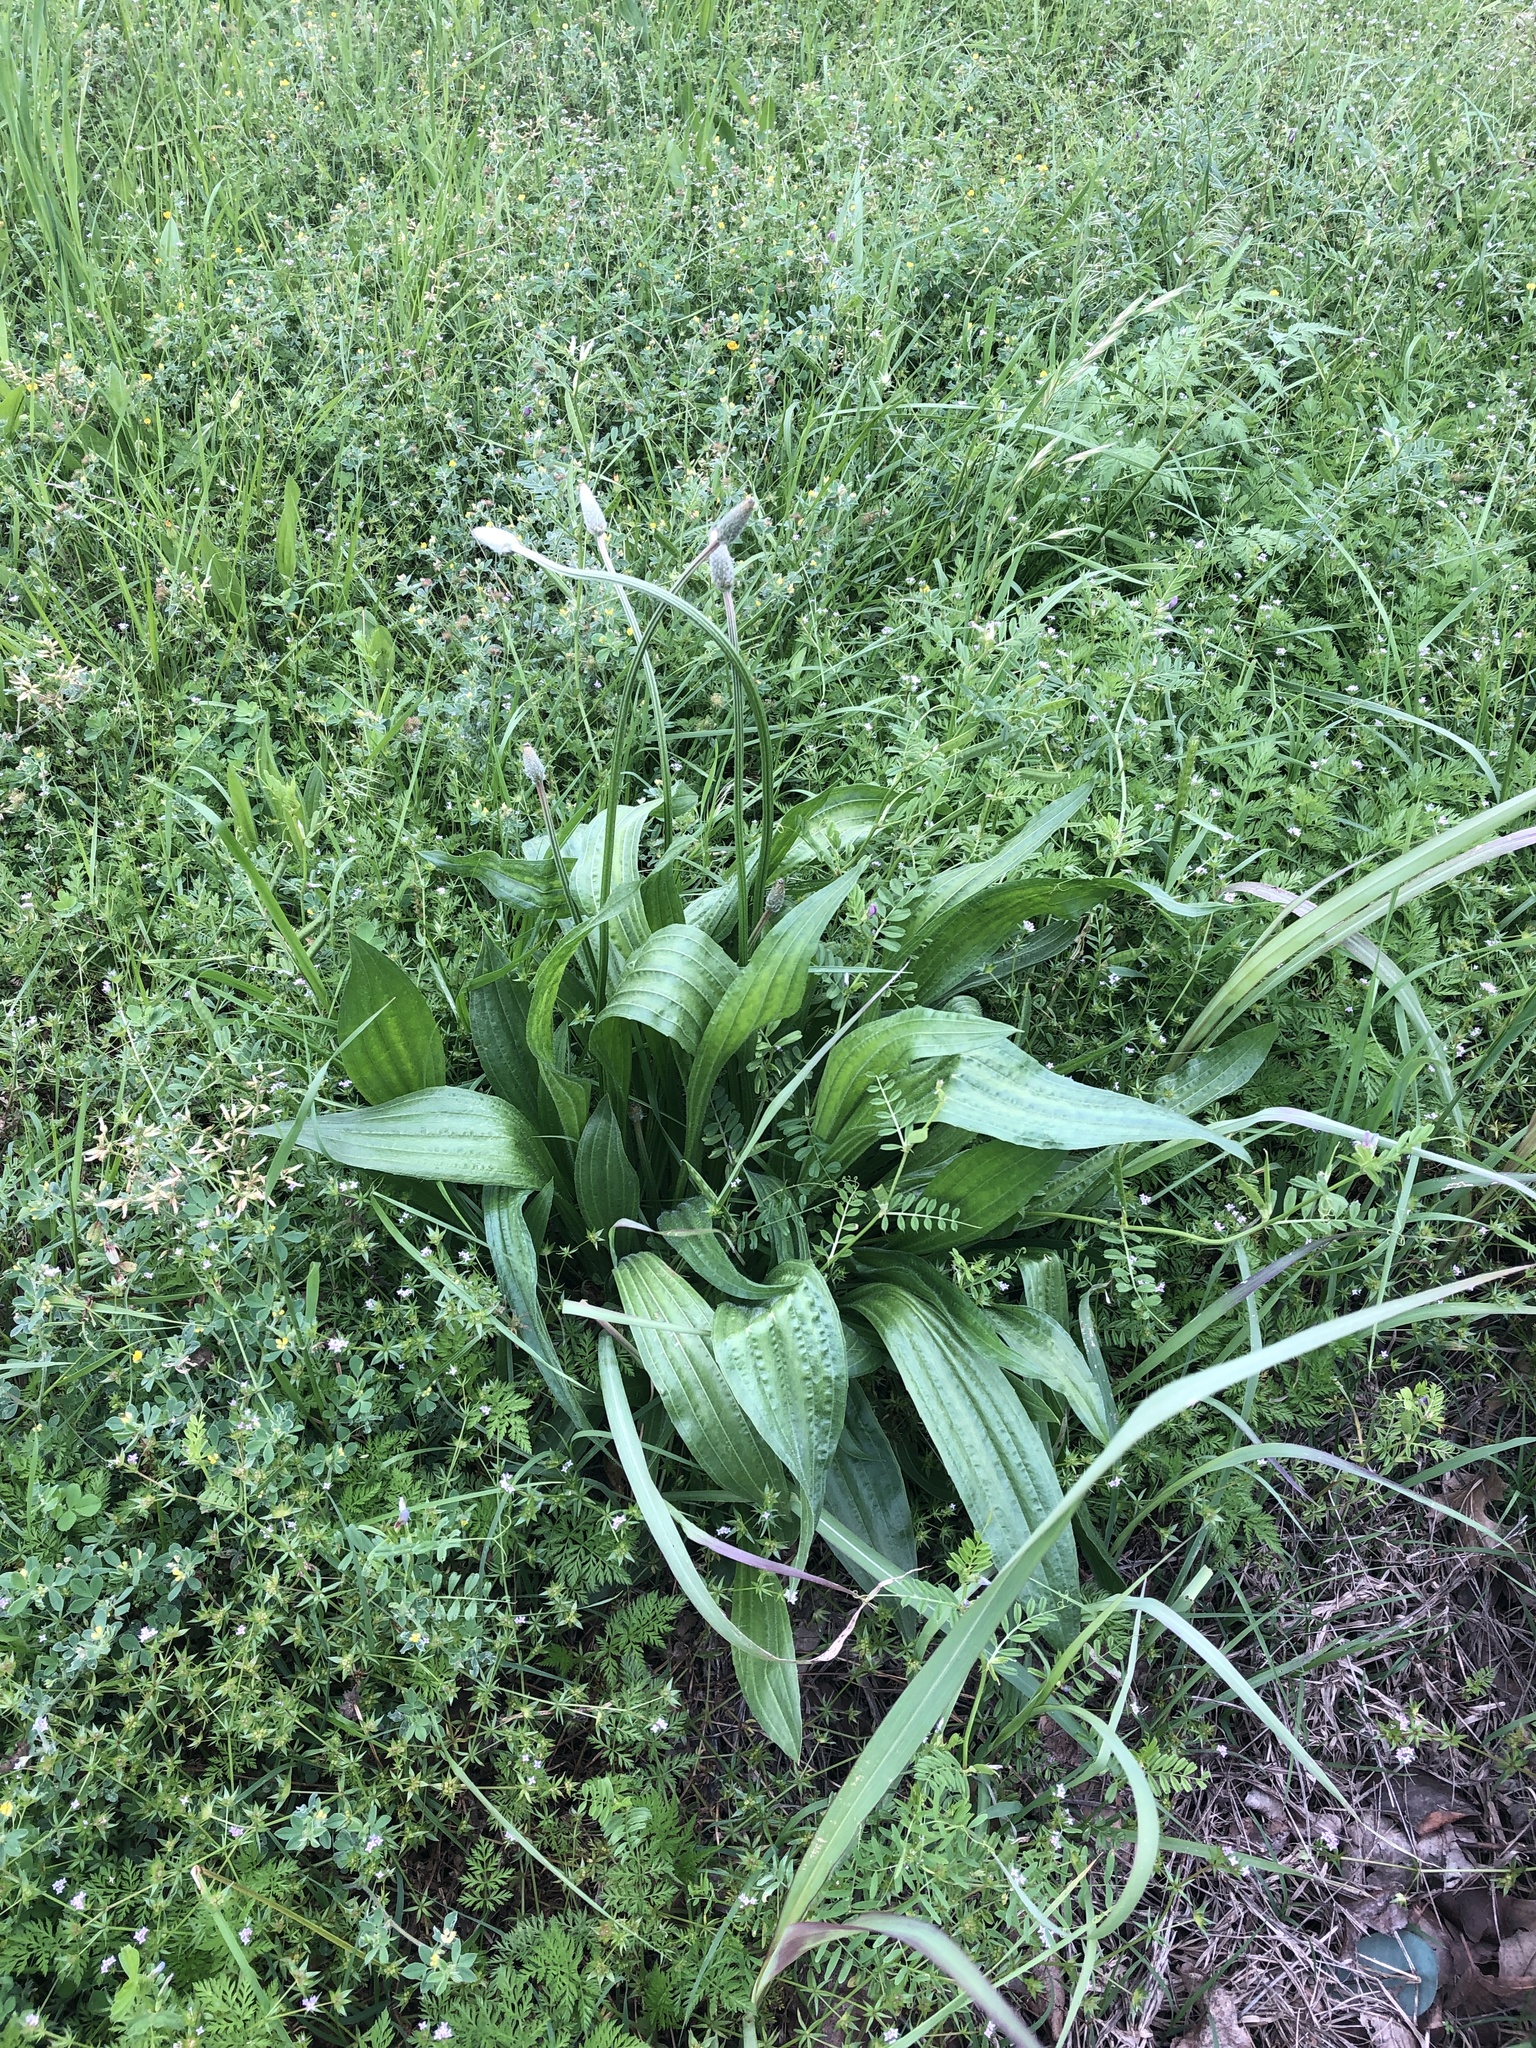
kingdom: Plantae
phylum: Tracheophyta
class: Magnoliopsida
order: Lamiales
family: Plantaginaceae
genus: Plantago
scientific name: Plantago lanceolata
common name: Ribwort plantain
